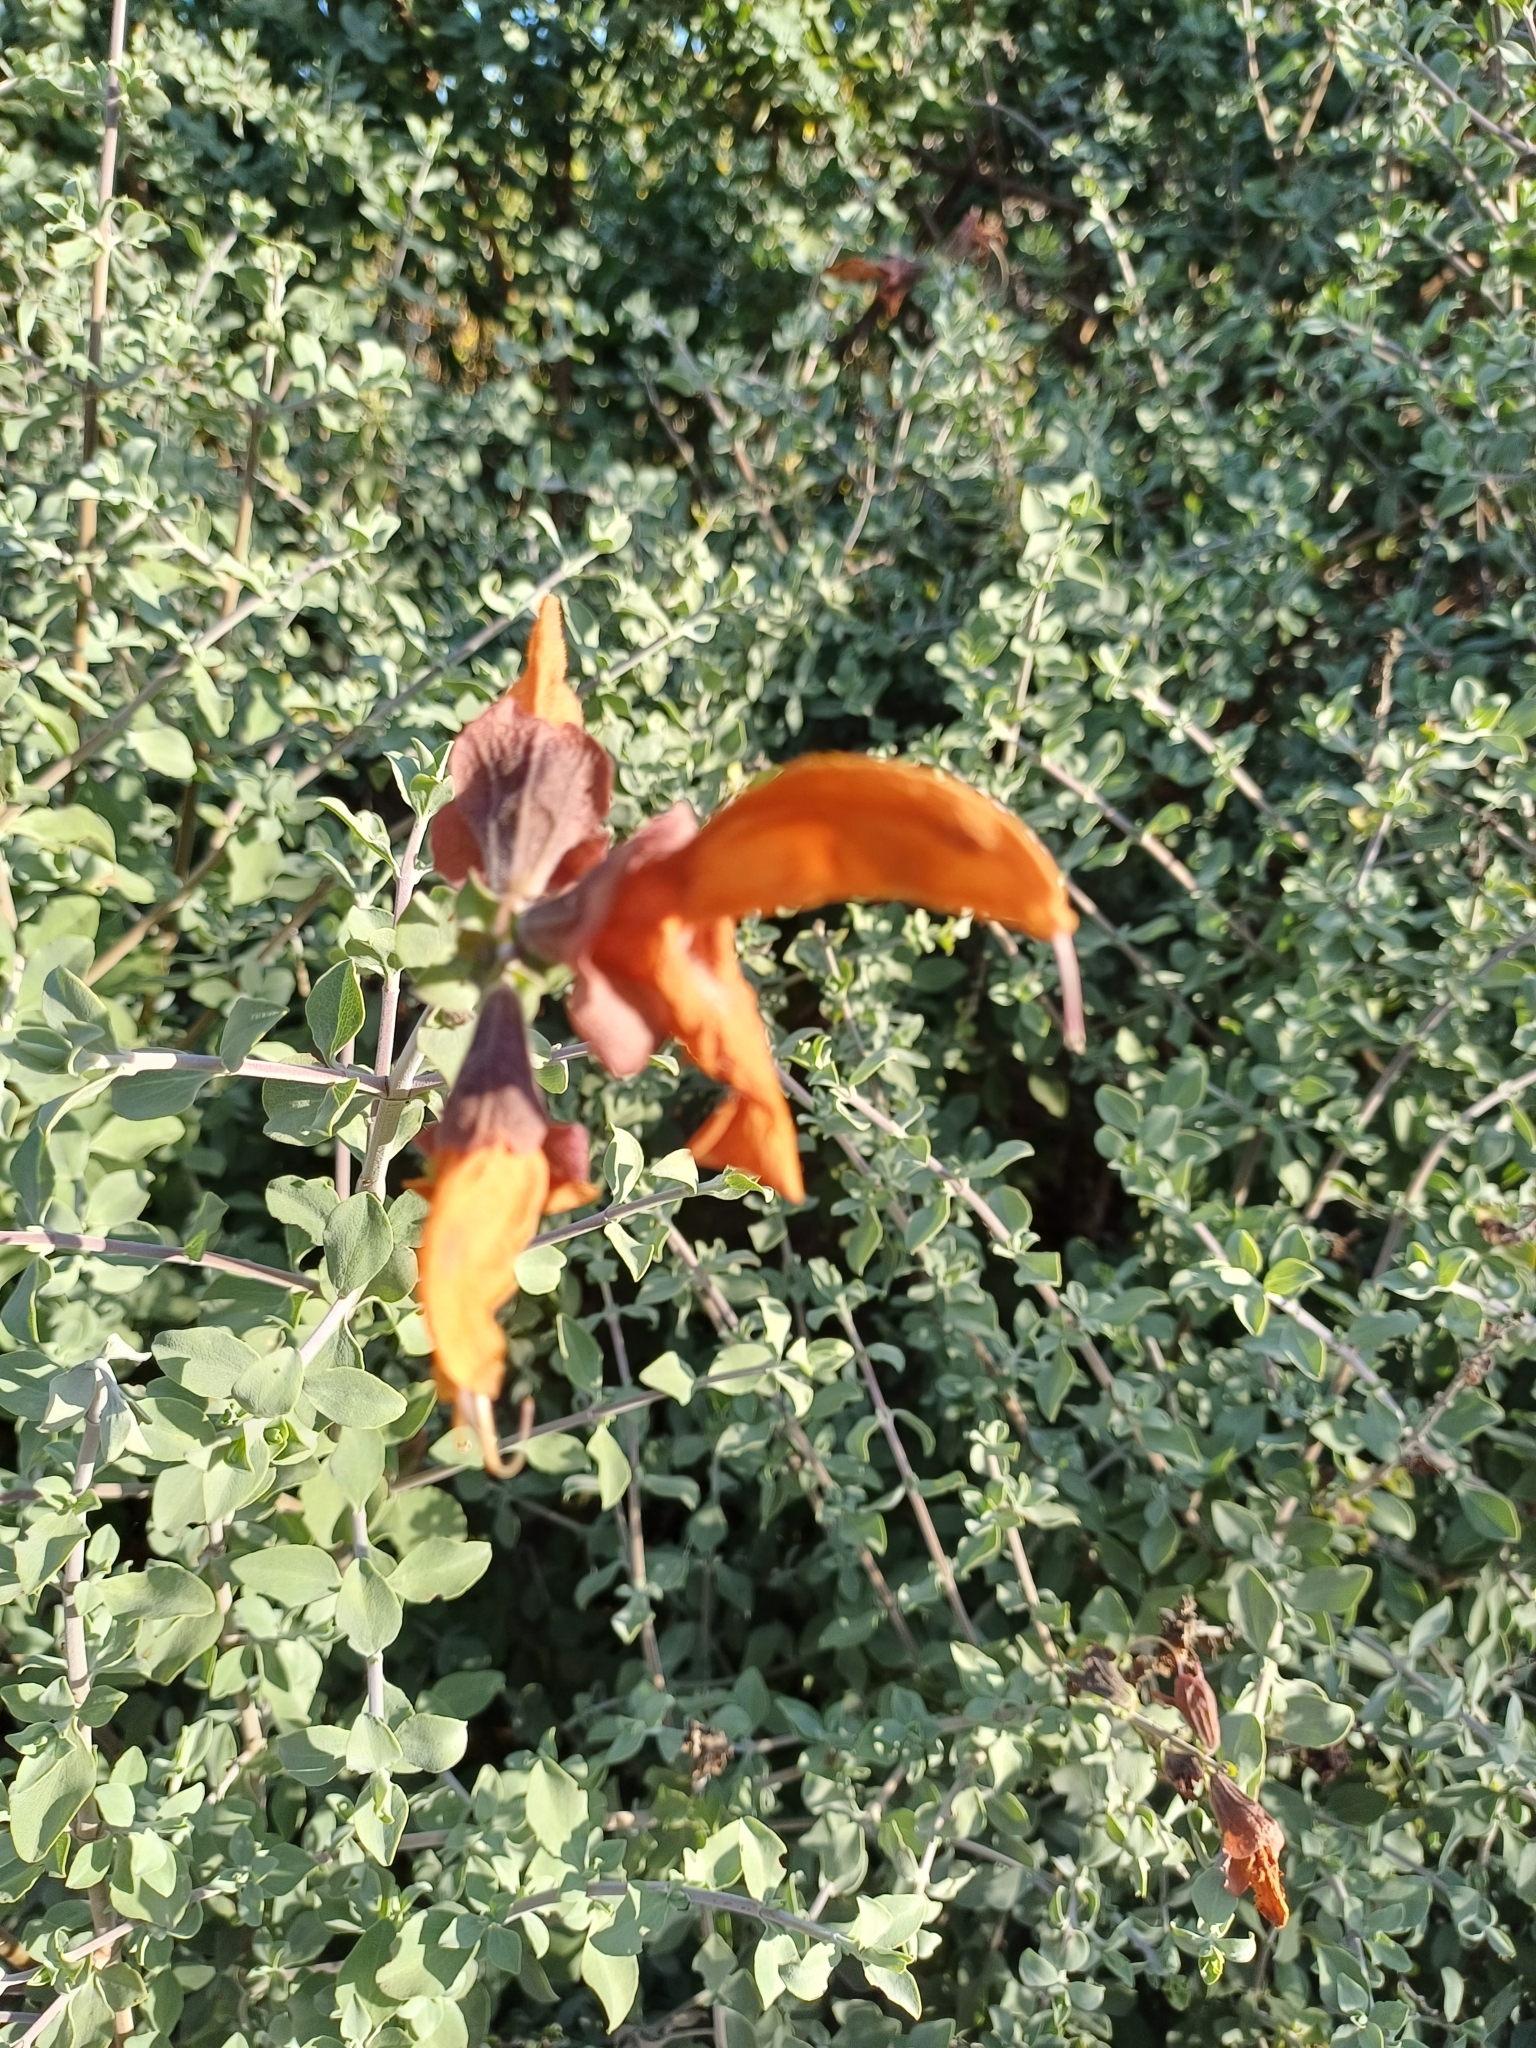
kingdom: Plantae
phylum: Tracheophyta
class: Magnoliopsida
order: Lamiales
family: Lamiaceae
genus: Salvia
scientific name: Salvia aurea
